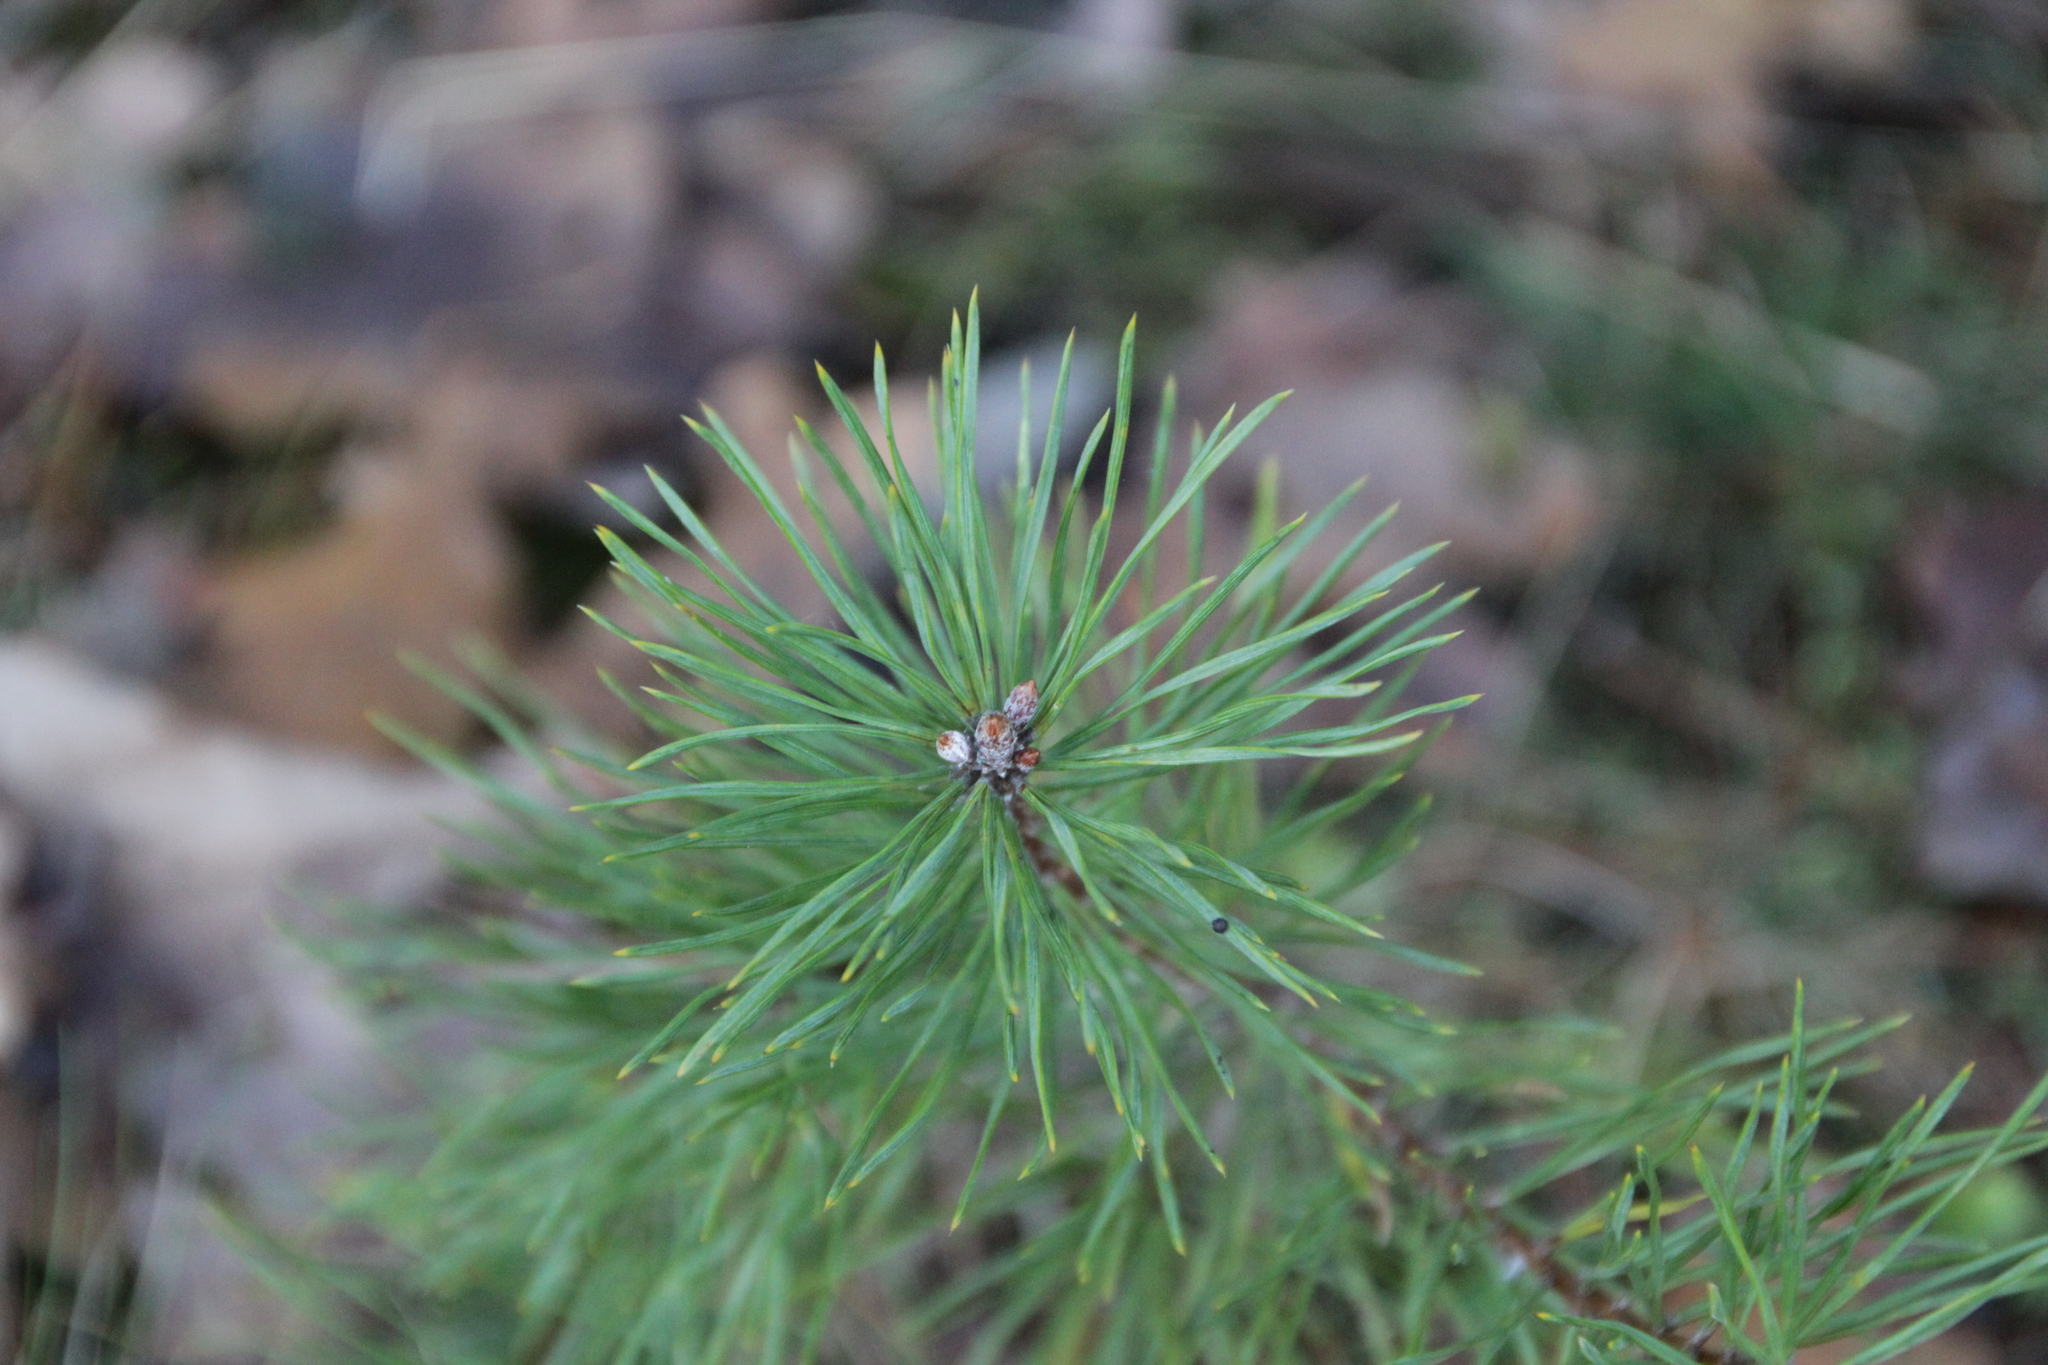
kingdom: Plantae
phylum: Tracheophyta
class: Pinopsida
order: Pinales
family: Pinaceae
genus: Pinus
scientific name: Pinus sylvestris
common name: Scots pine
